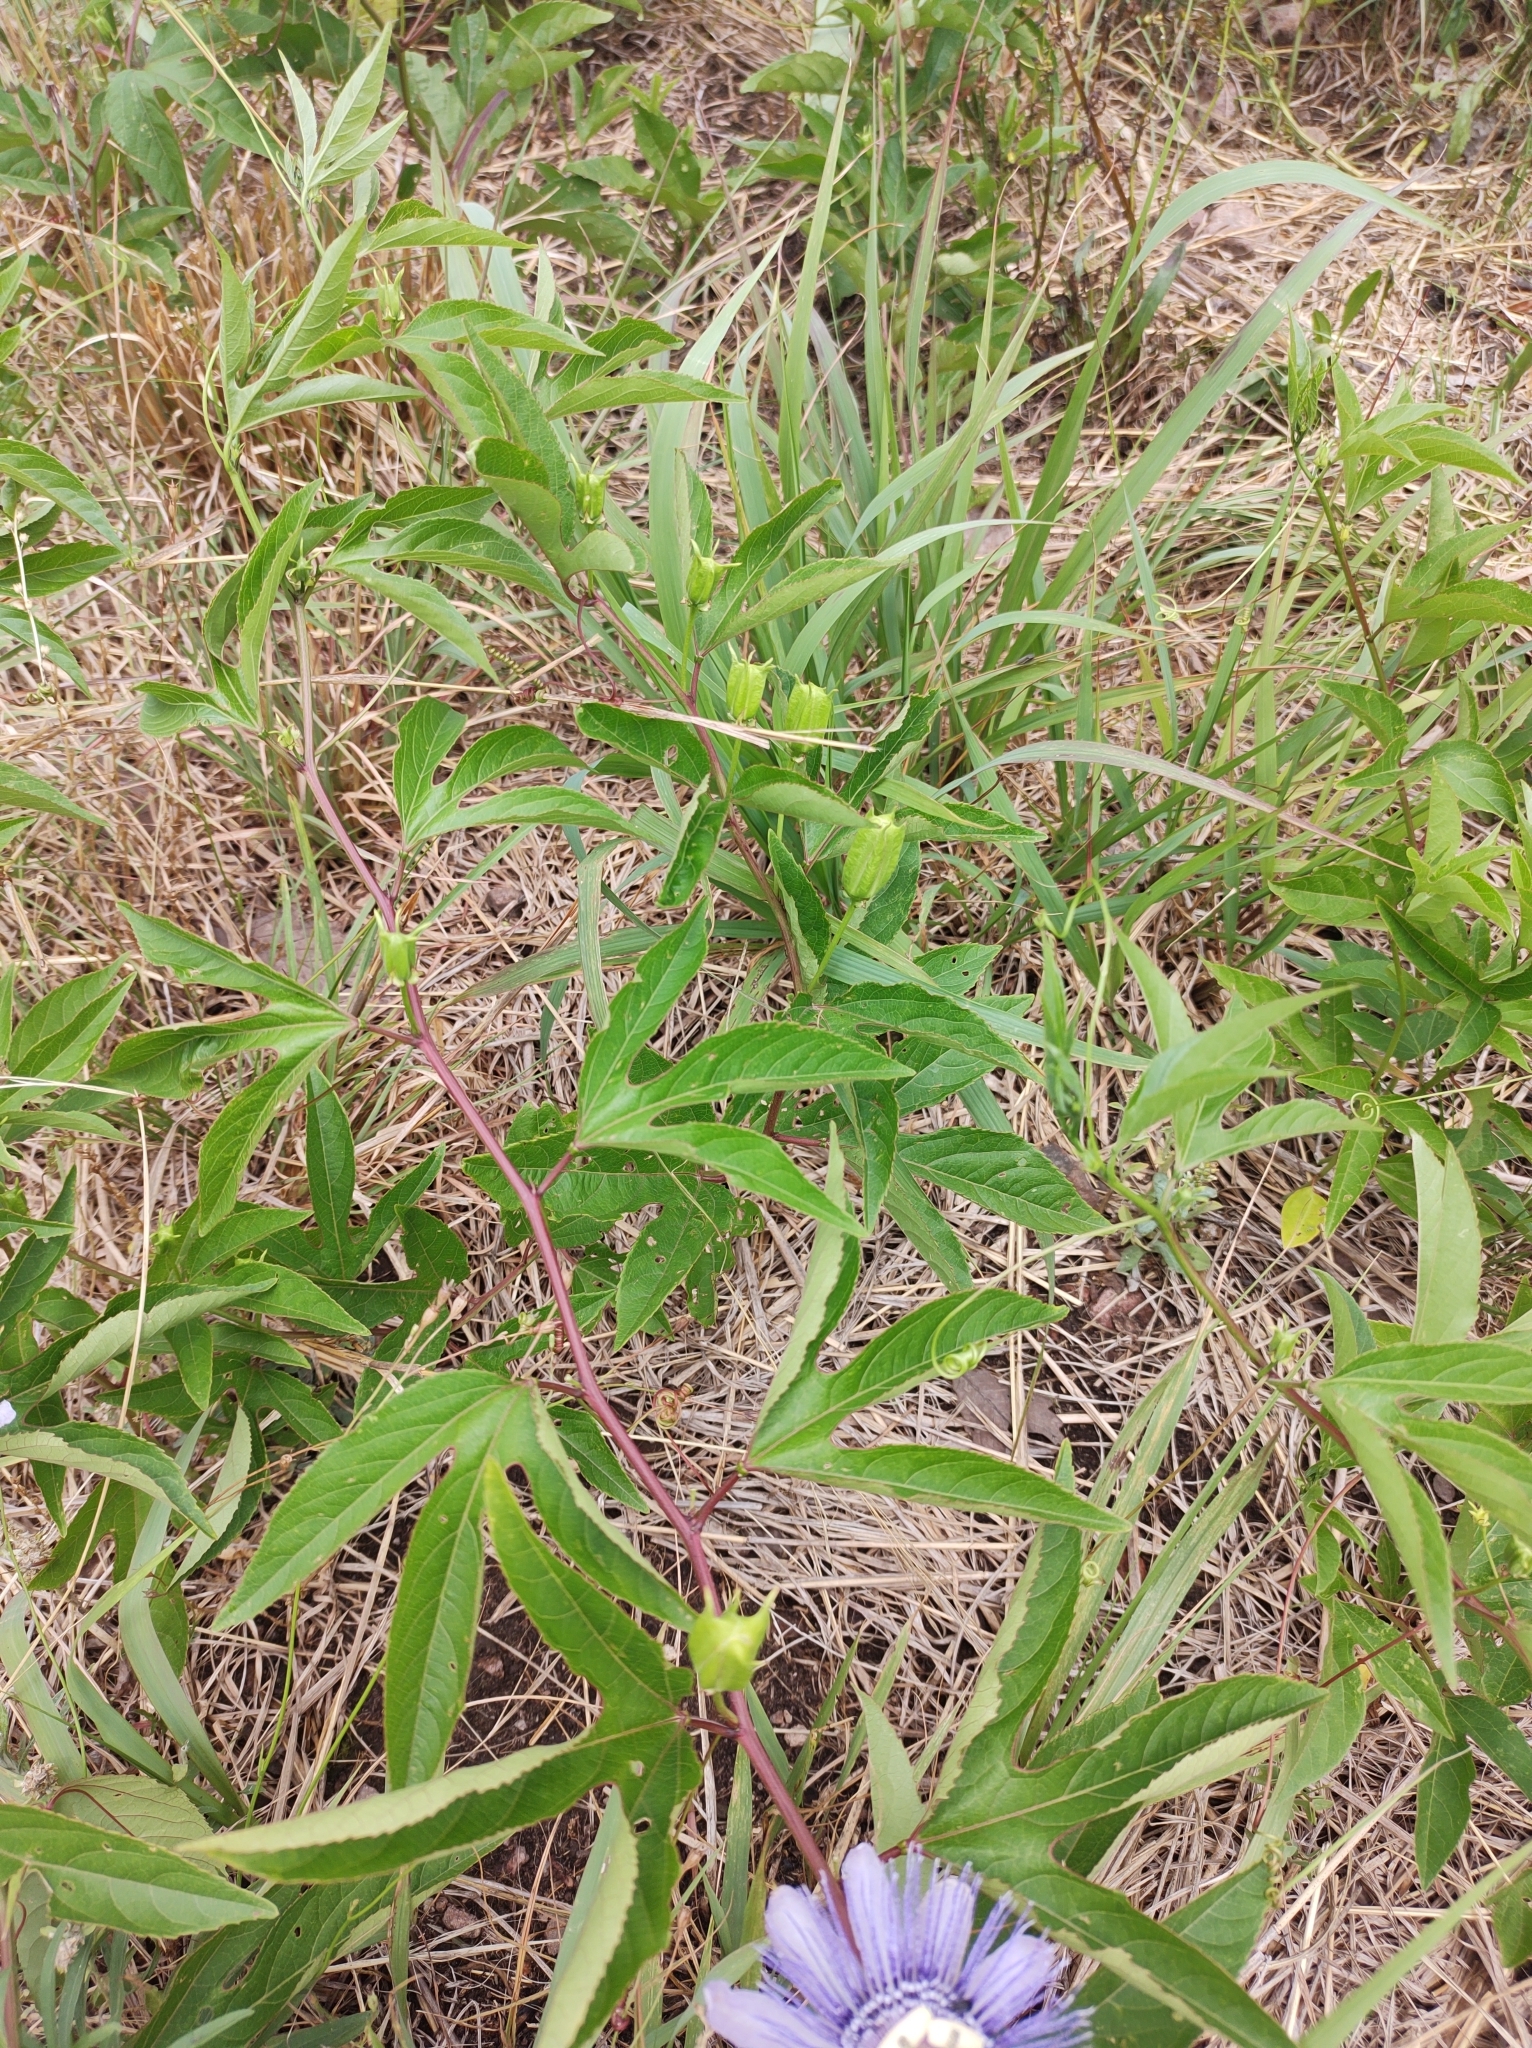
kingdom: Plantae
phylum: Tracheophyta
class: Magnoliopsida
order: Malpighiales
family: Passifloraceae
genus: Passiflora
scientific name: Passiflora incarnata
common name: Apricot-vine
